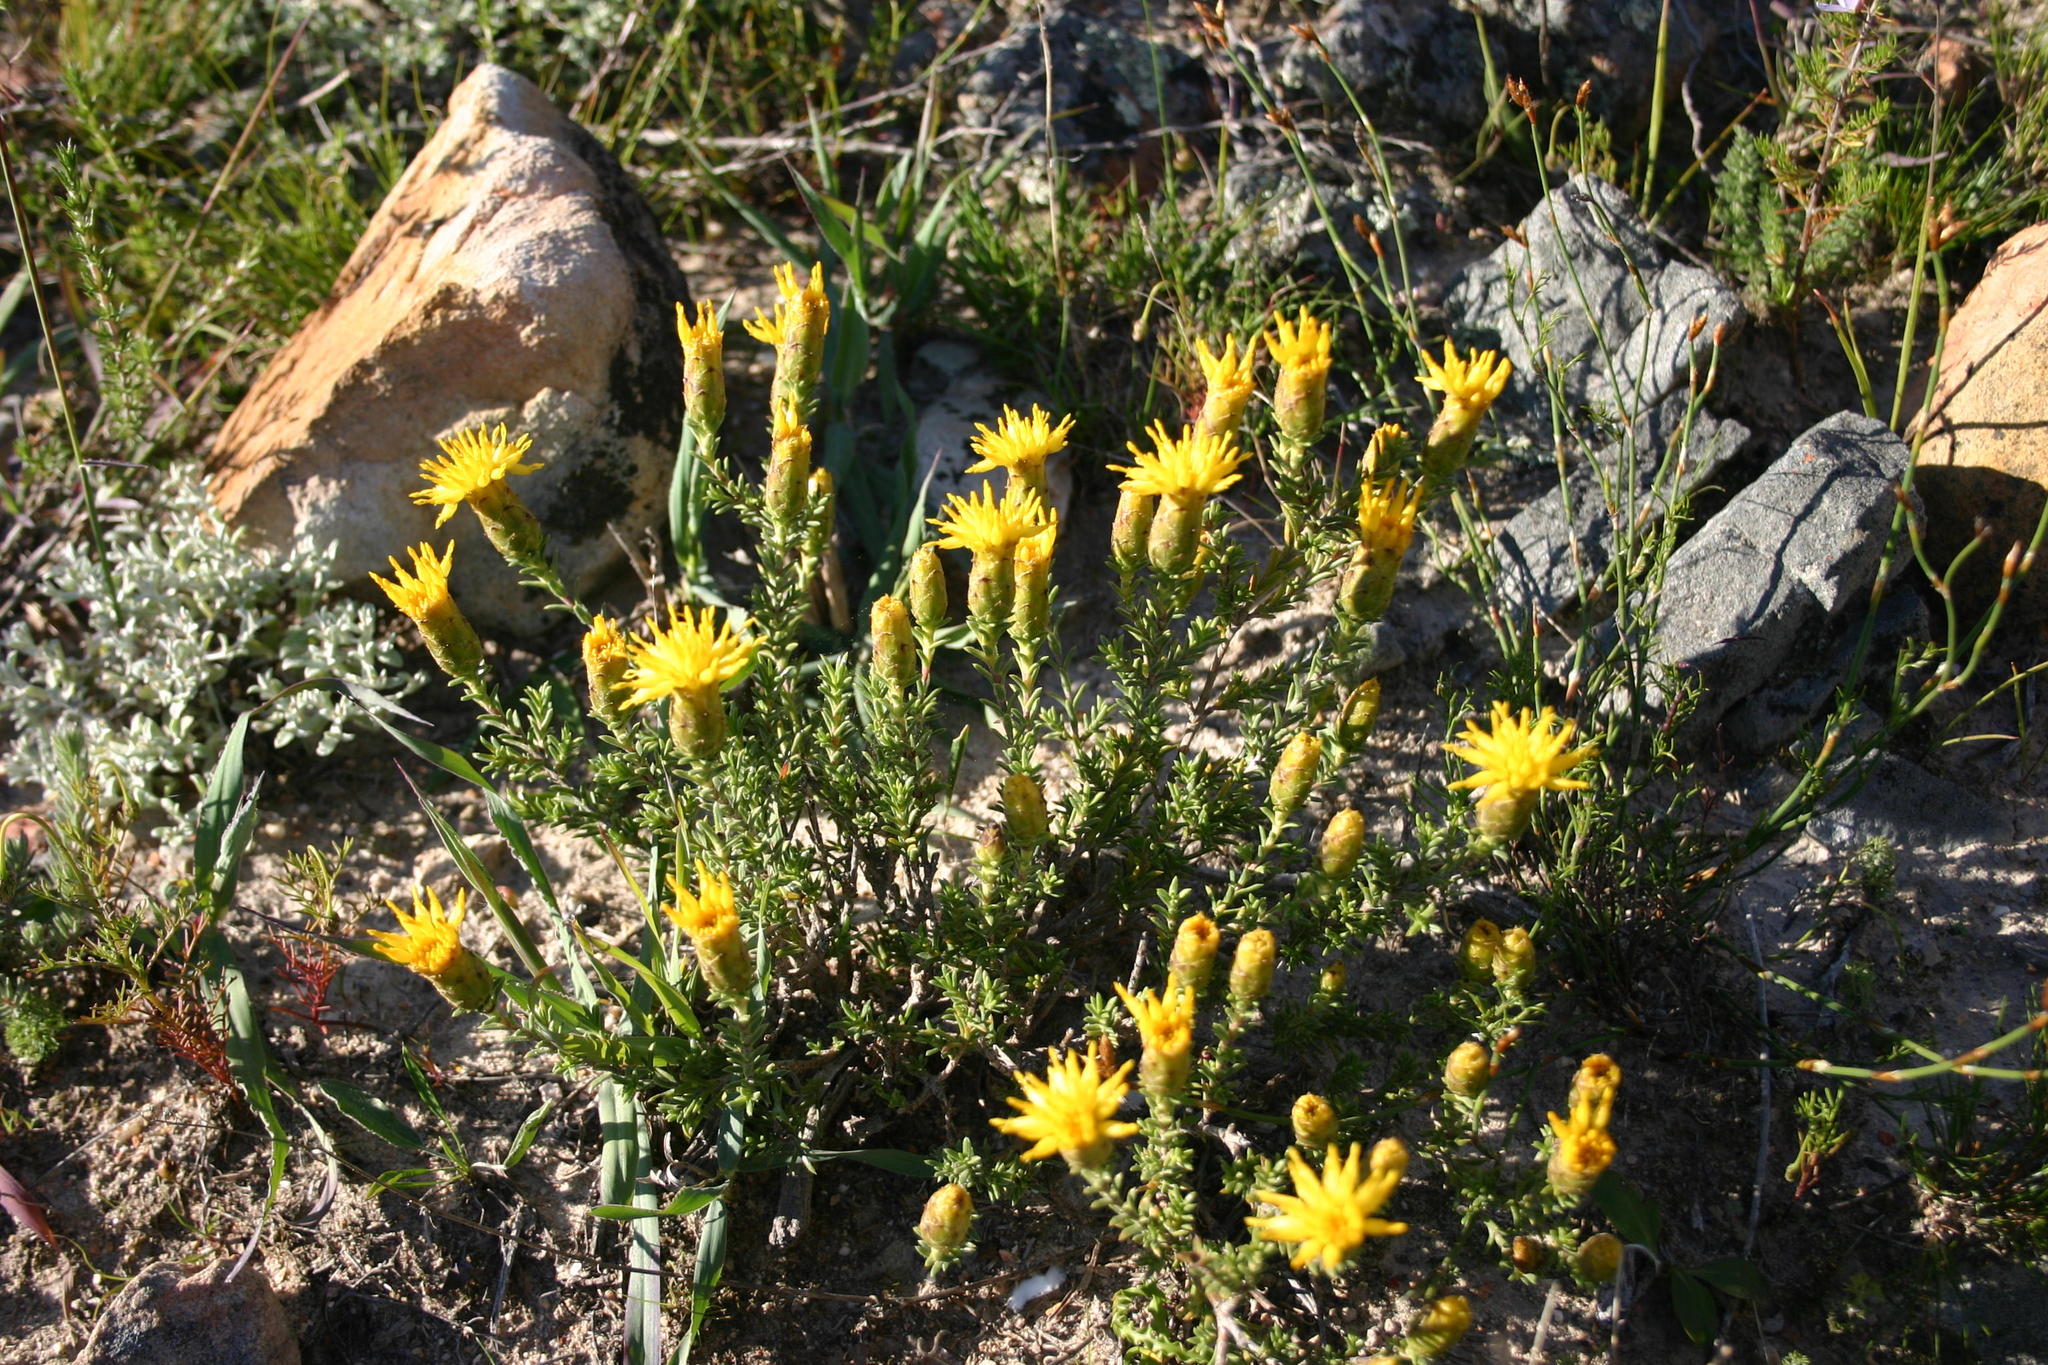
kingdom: Plantae
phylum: Tracheophyta
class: Magnoliopsida
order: Asterales
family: Asteraceae
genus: Pteronia
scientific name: Pteronia elongata
